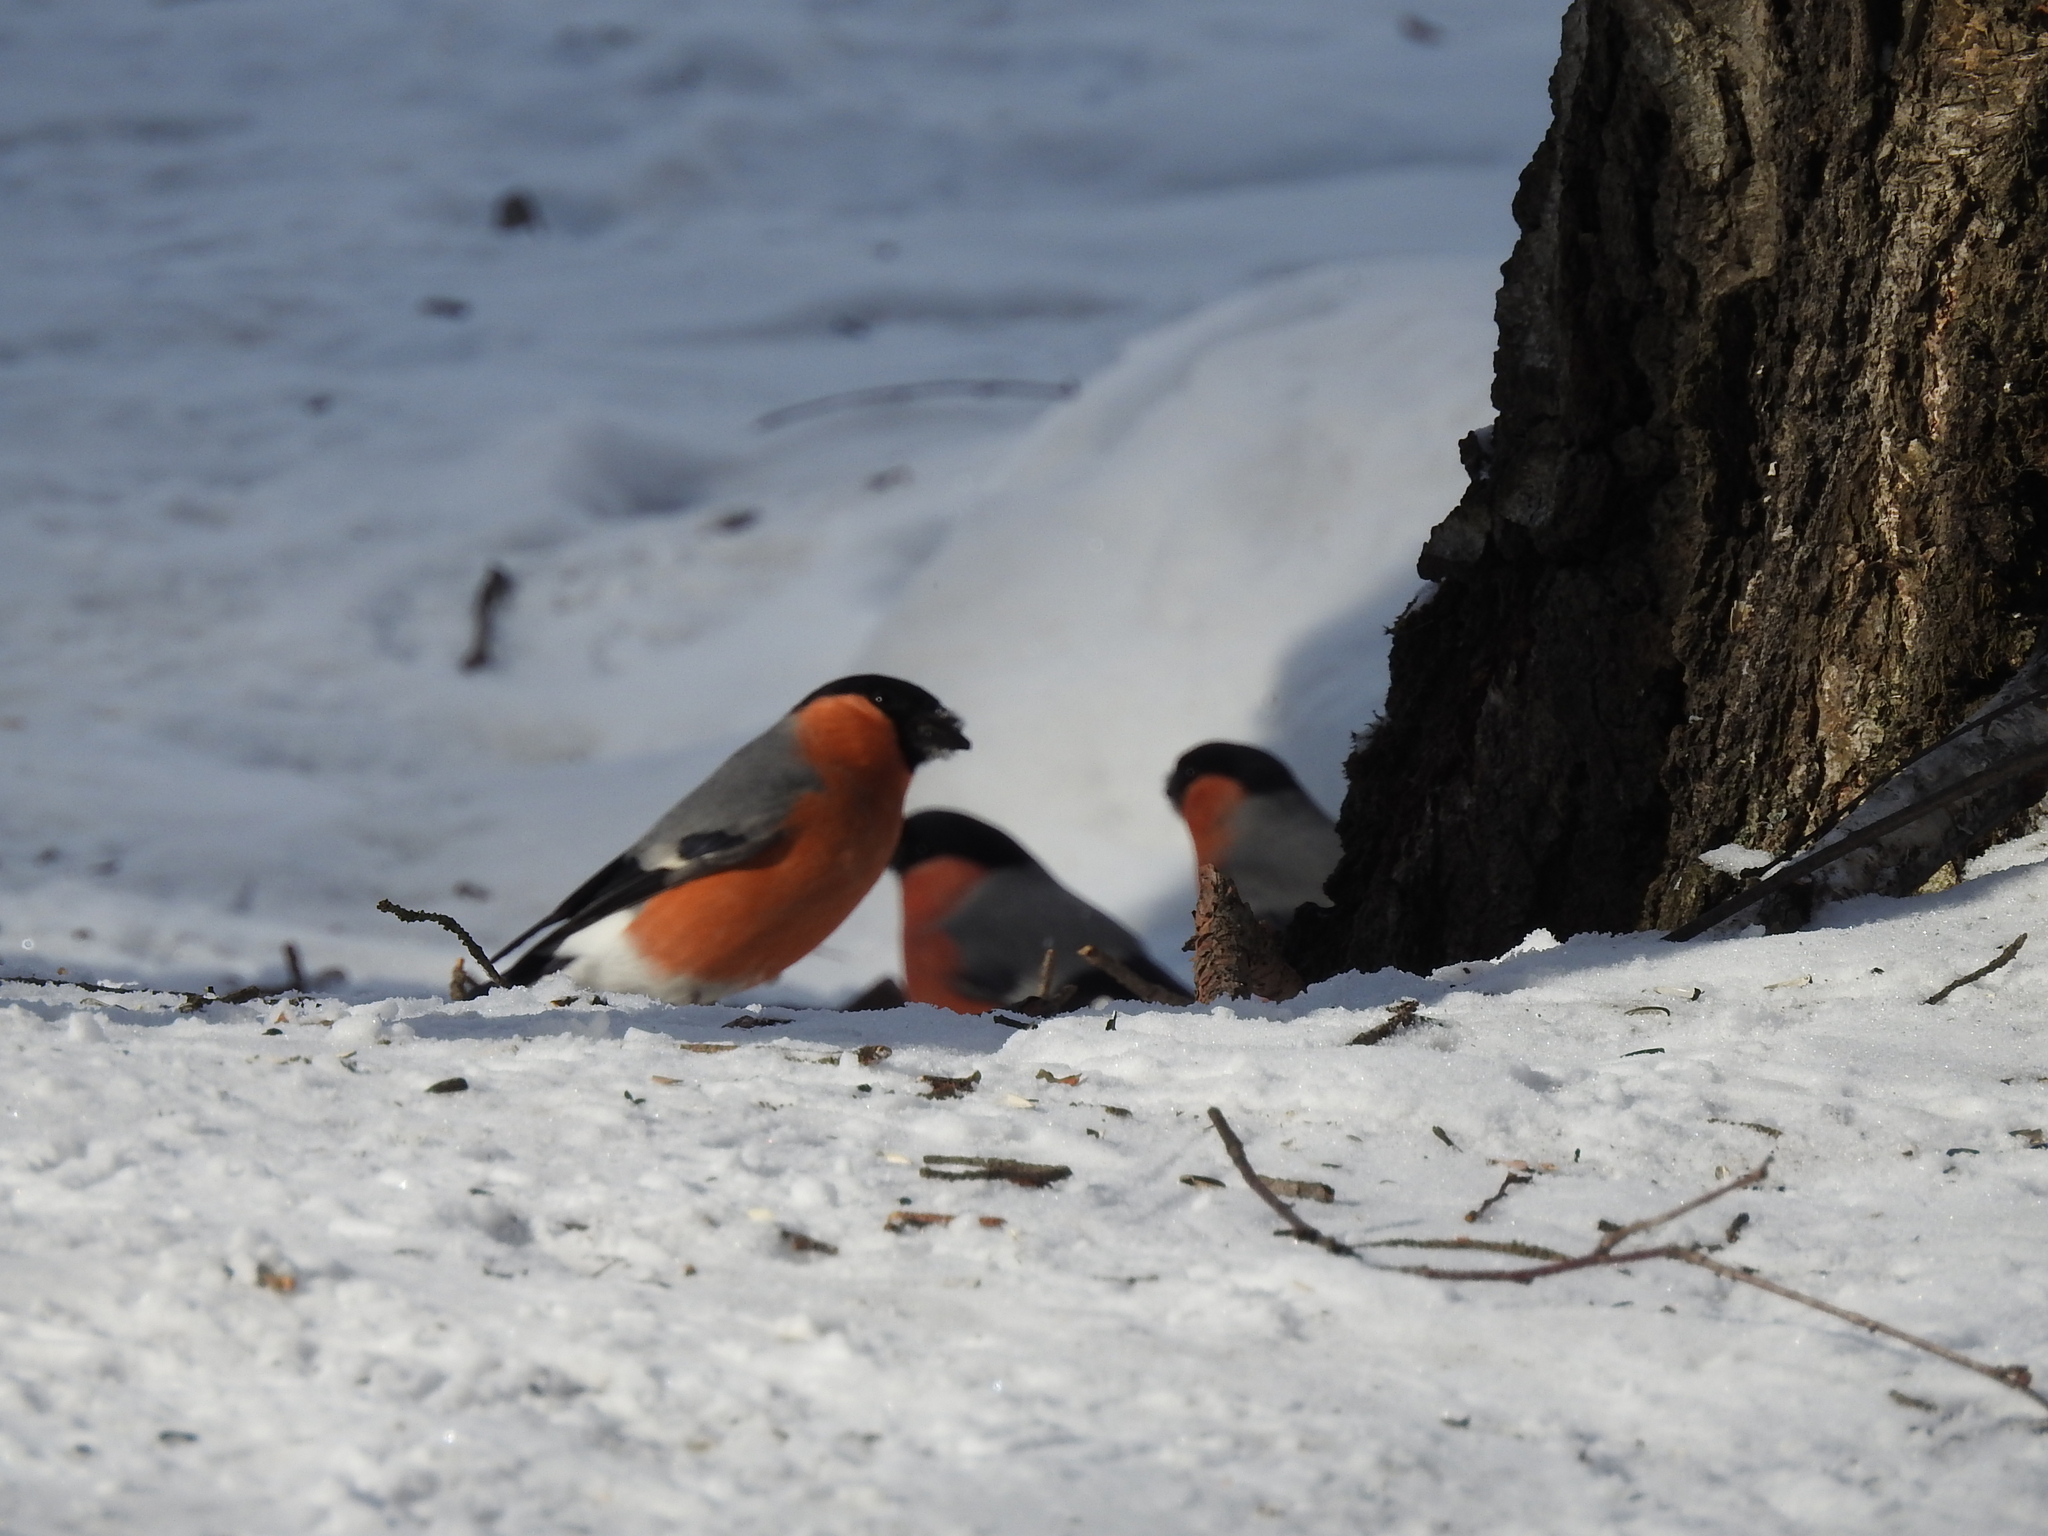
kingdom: Animalia
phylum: Chordata
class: Aves
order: Passeriformes
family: Fringillidae
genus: Pyrrhula
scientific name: Pyrrhula pyrrhula
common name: Eurasian bullfinch
